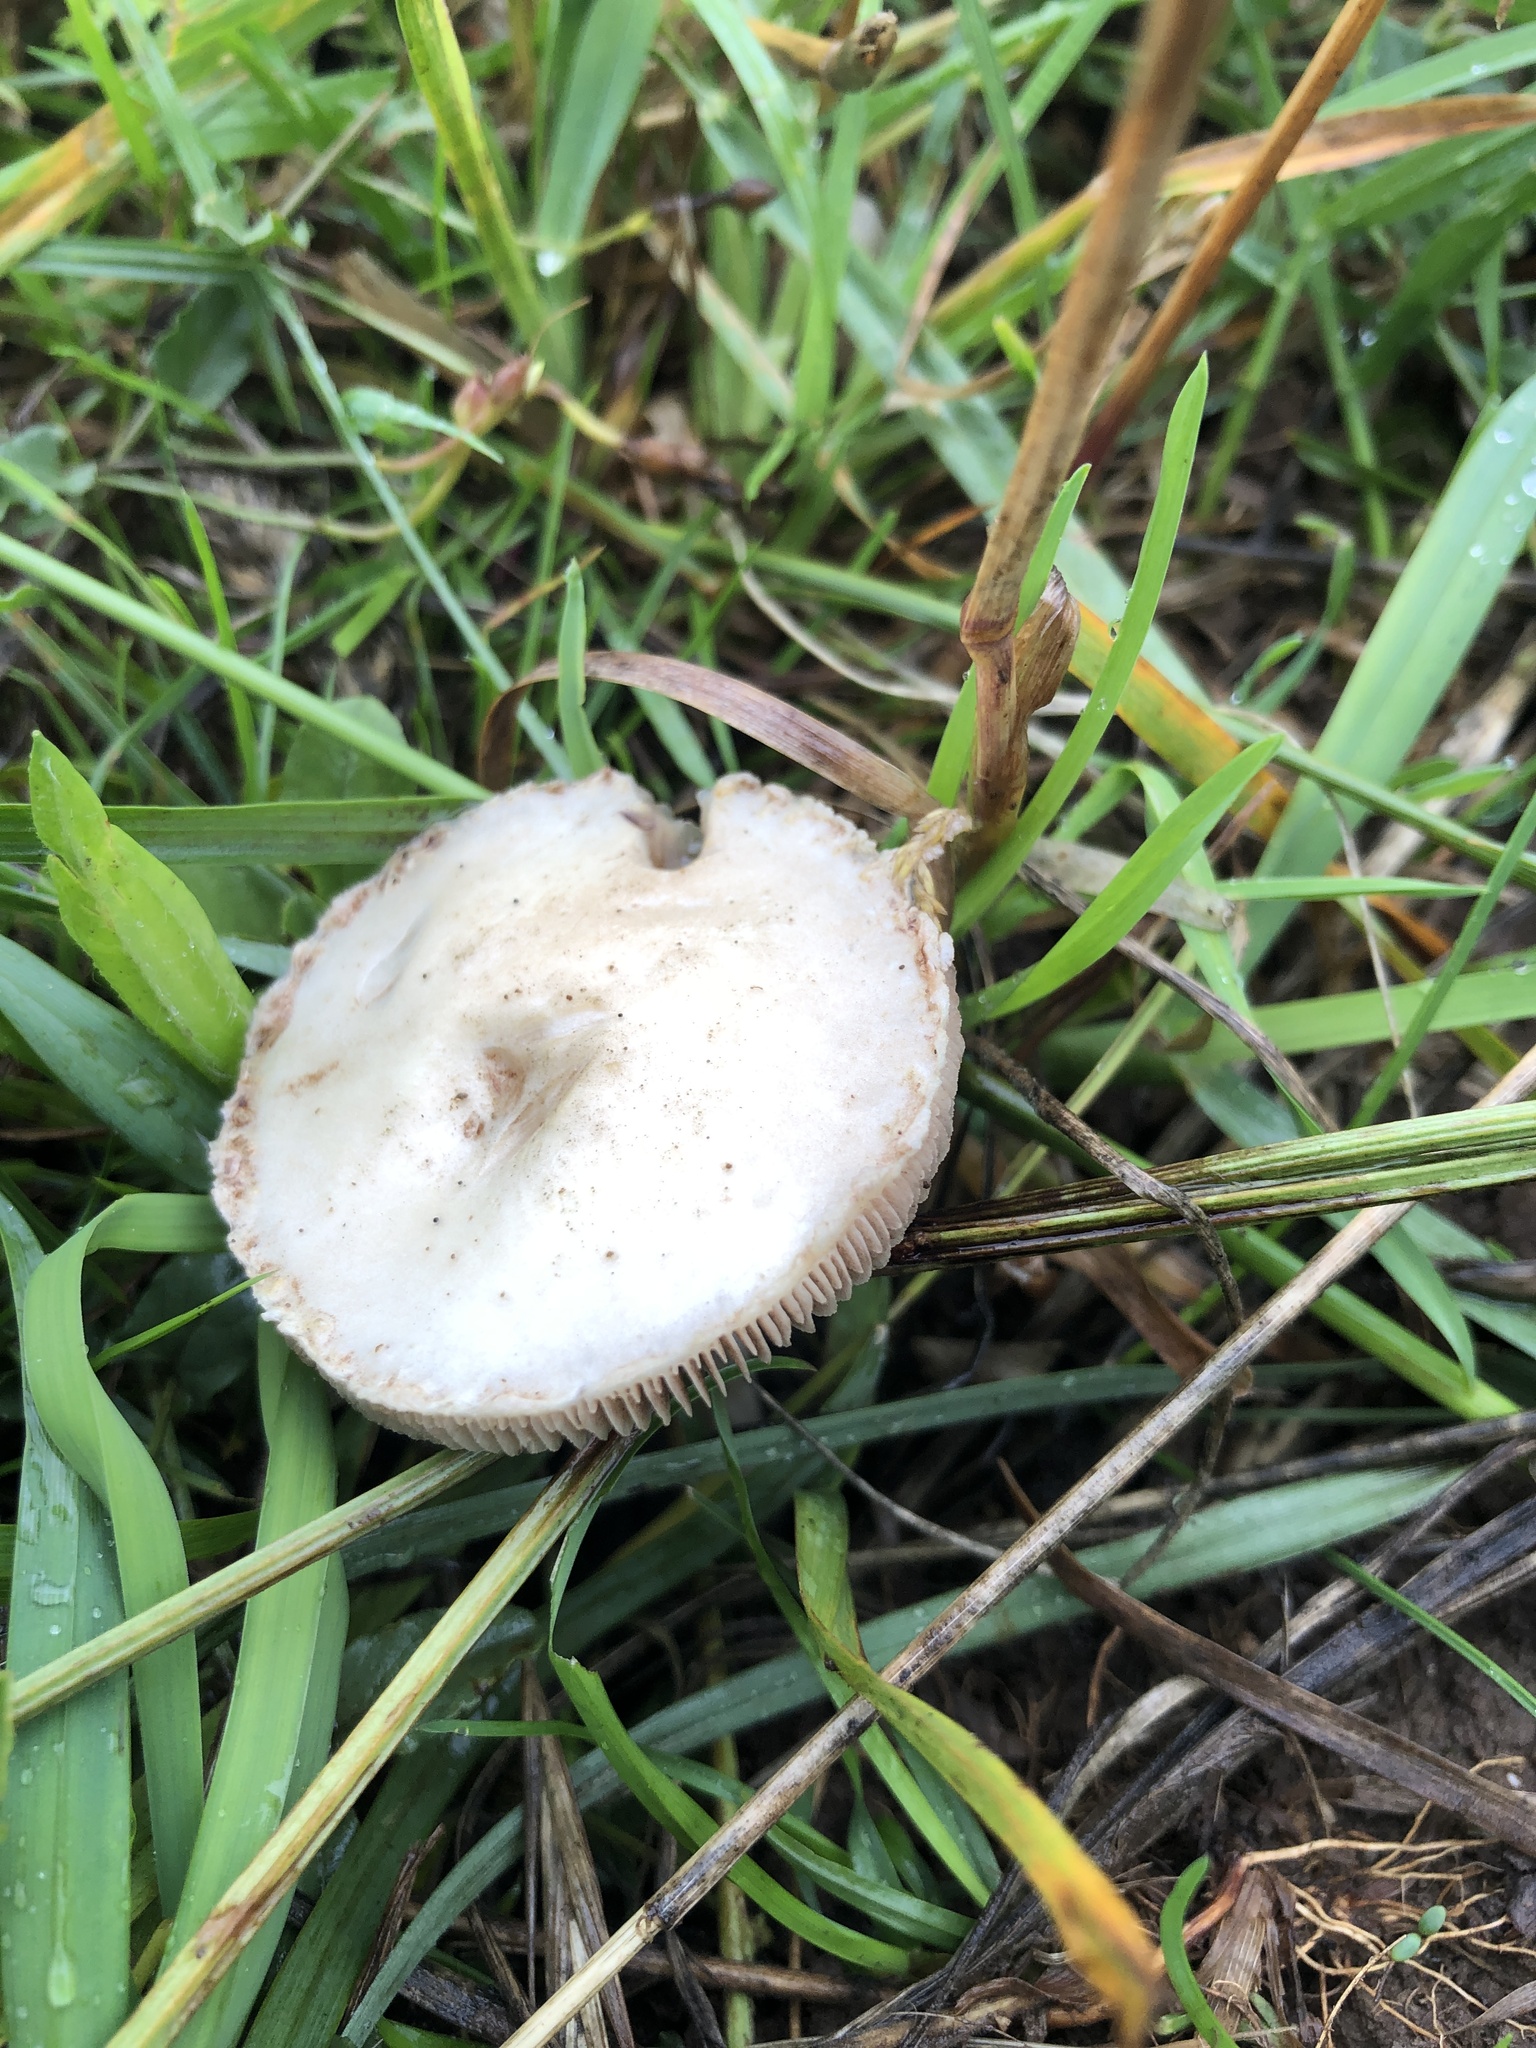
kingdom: Fungi
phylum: Basidiomycota
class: Agaricomycetes
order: Agaricales
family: Pluteaceae
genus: Volvopluteus
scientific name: Volvopluteus gloiocephalus
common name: Stubble rosegill
